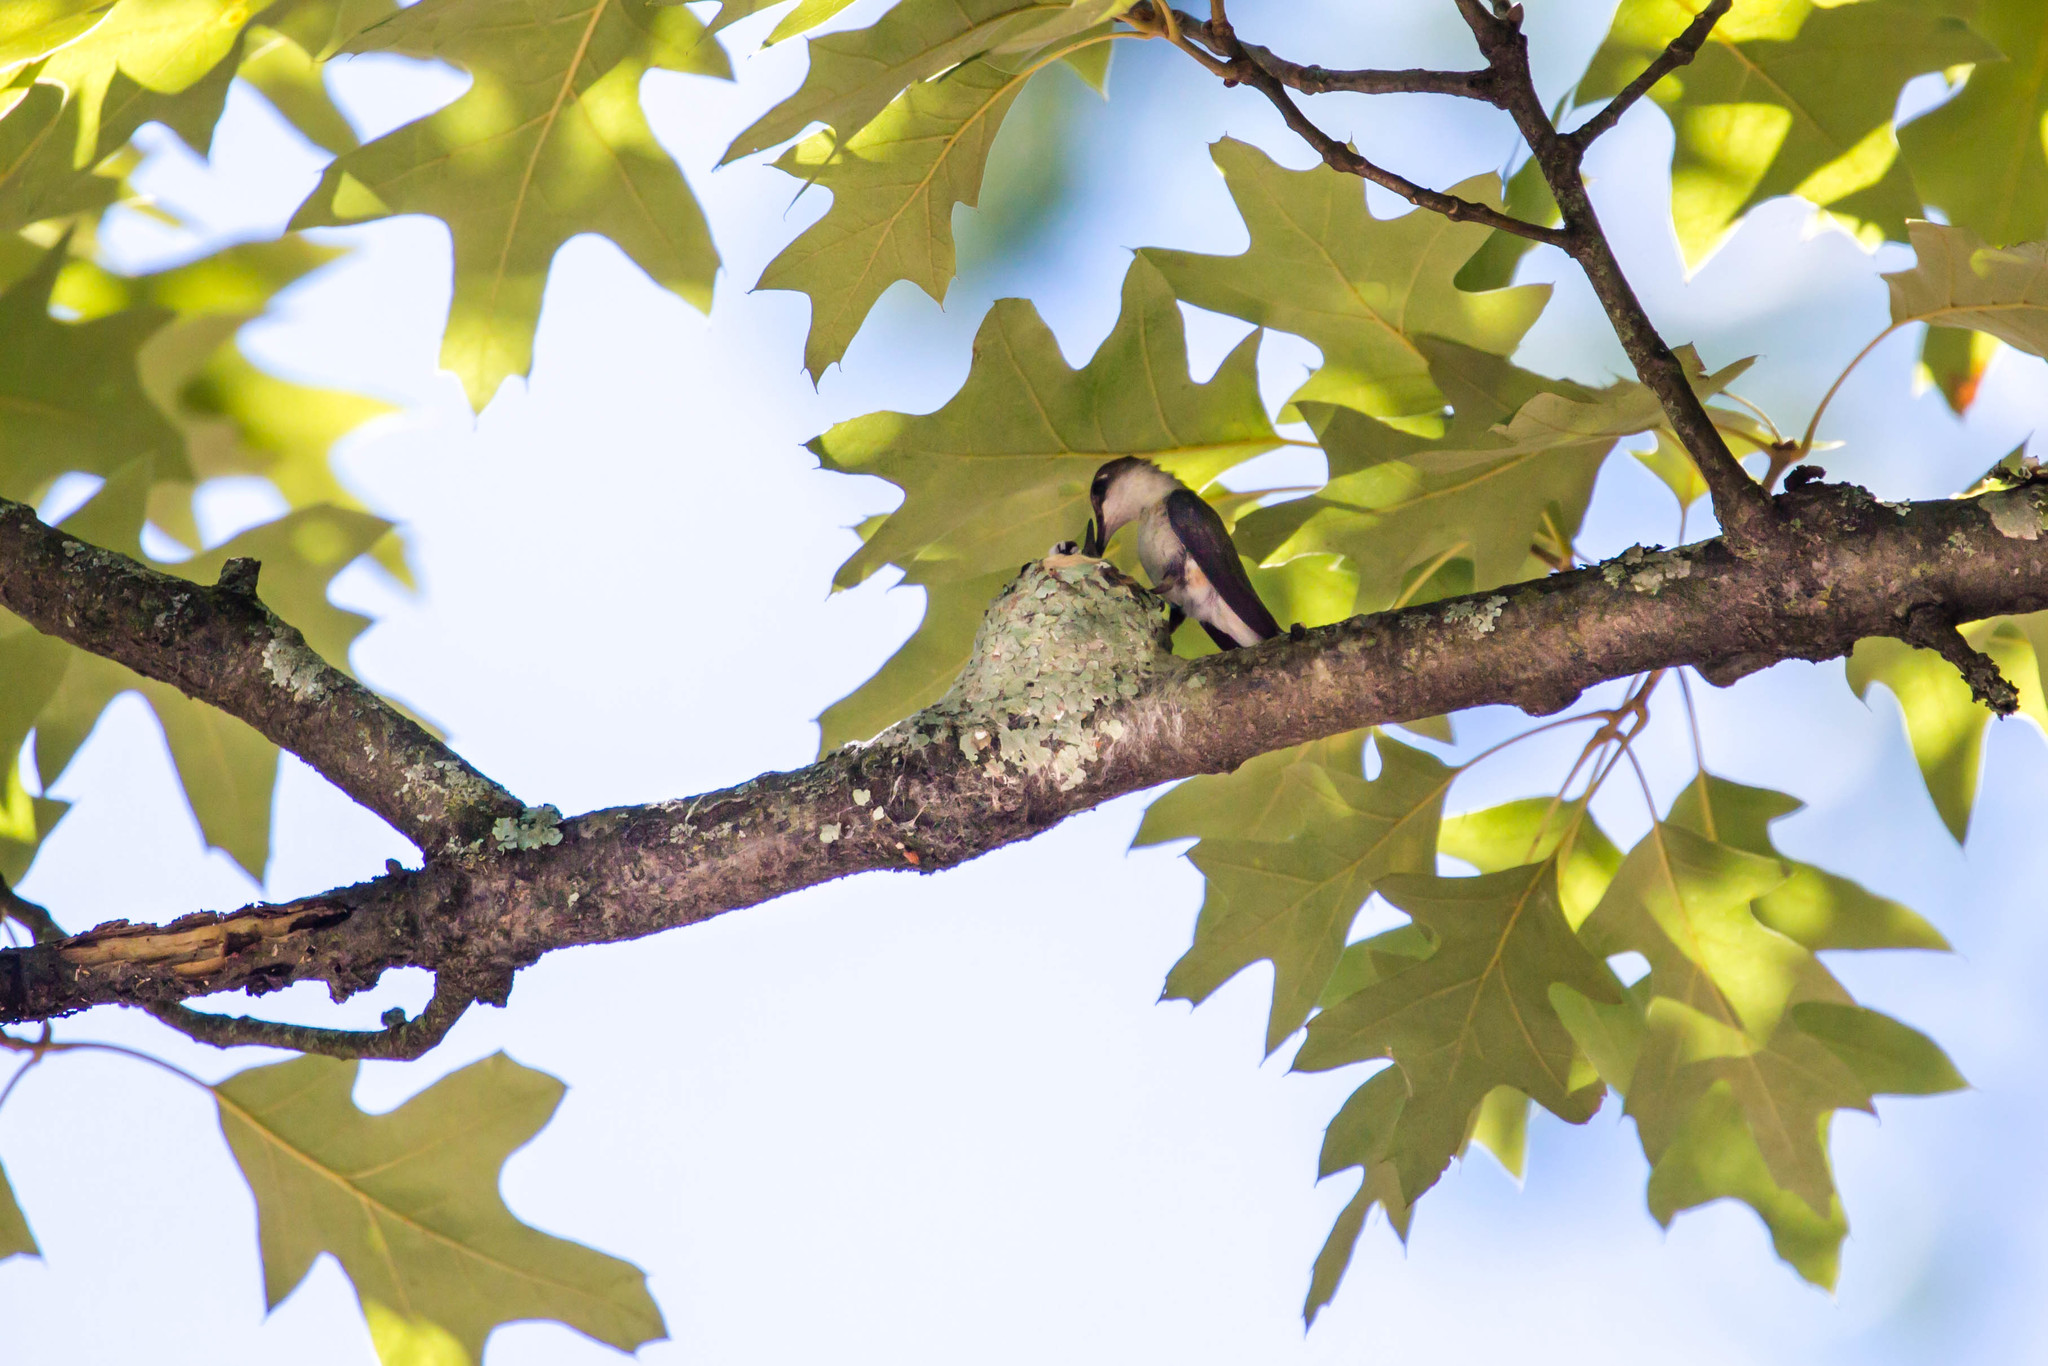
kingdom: Animalia
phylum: Chordata
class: Aves
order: Apodiformes
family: Trochilidae
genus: Archilochus
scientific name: Archilochus colubris
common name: Ruby-throated hummingbird
